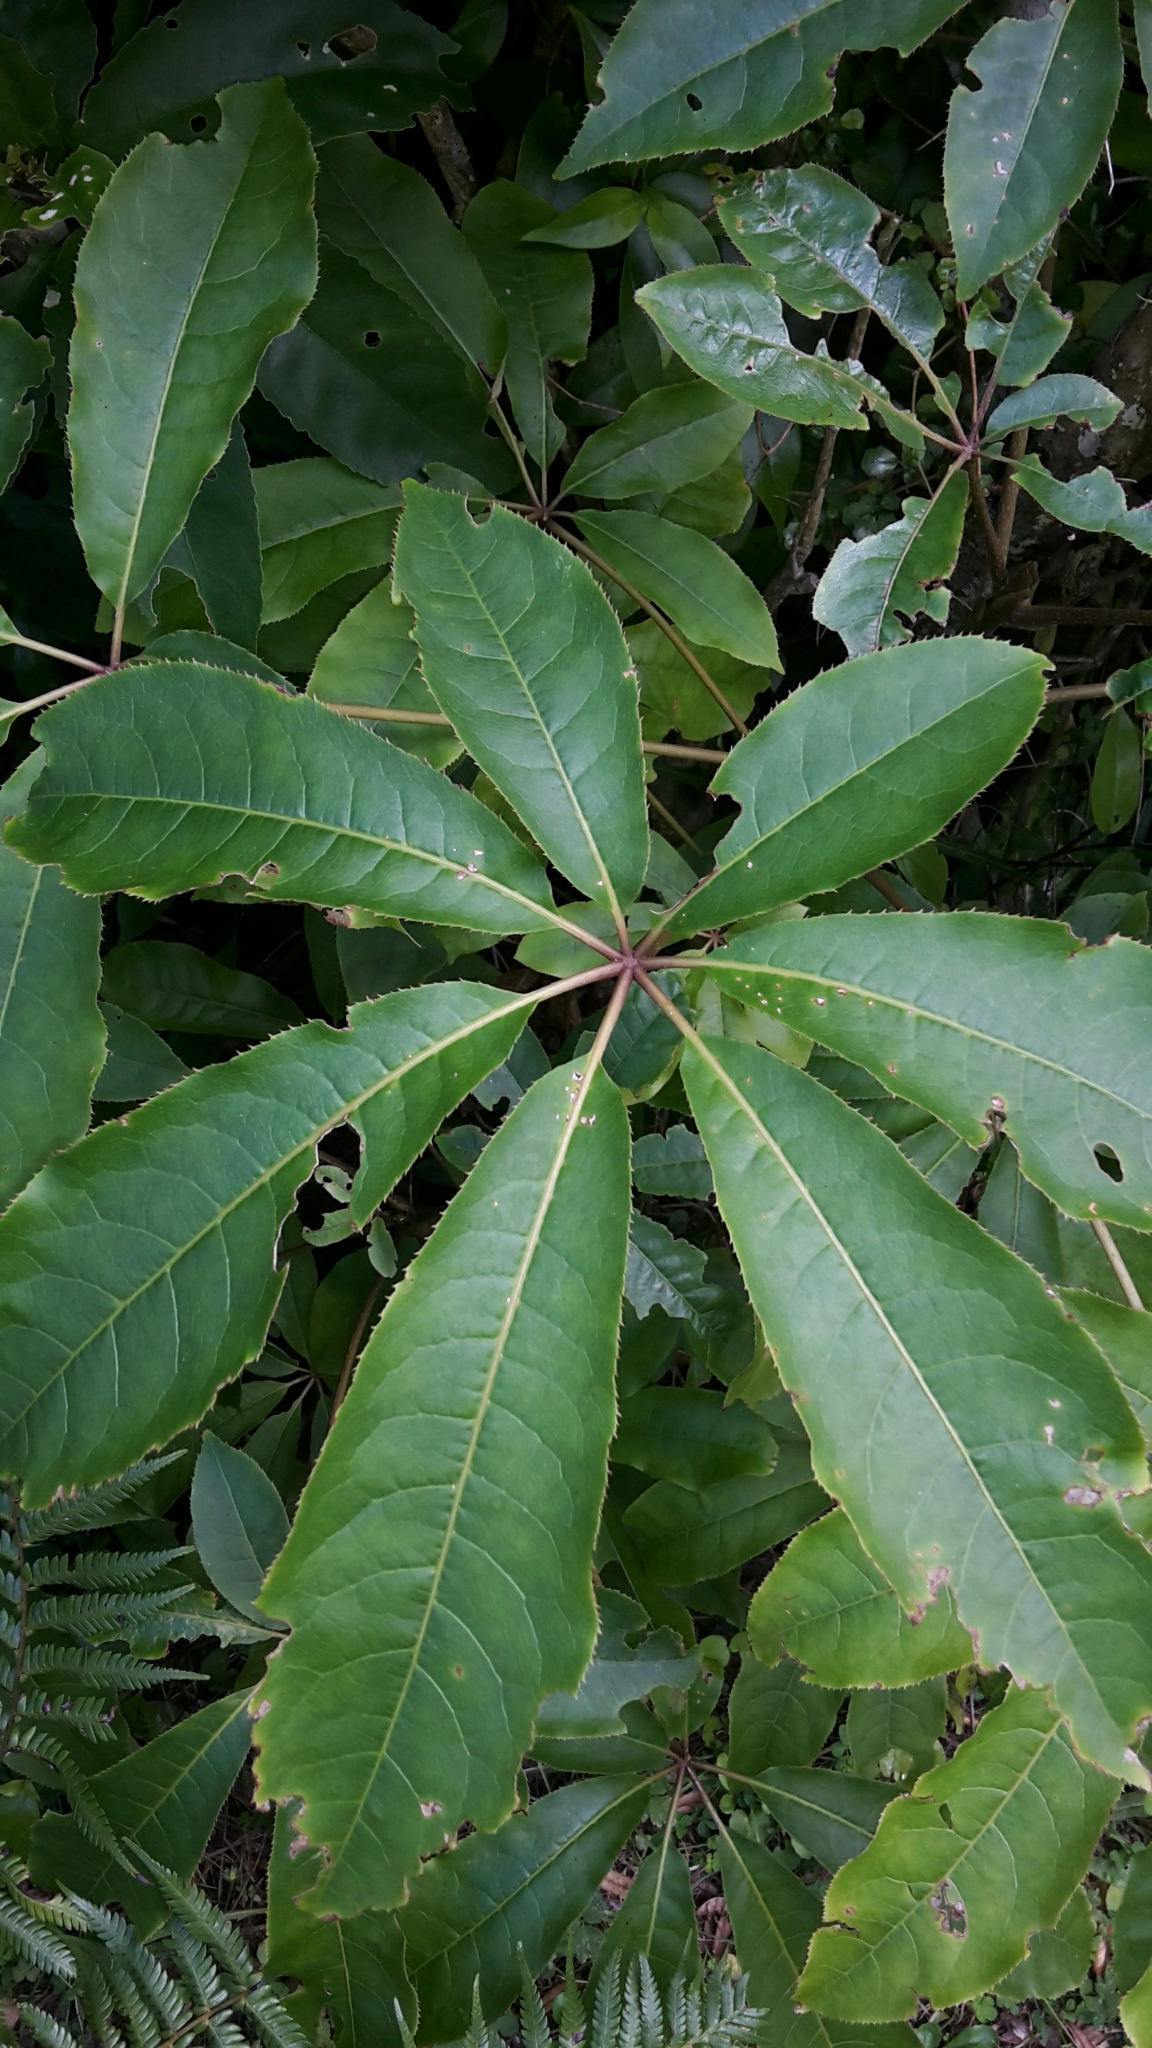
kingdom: Plantae
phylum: Tracheophyta
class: Magnoliopsida
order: Apiales
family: Araliaceae
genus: Schefflera
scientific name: Schefflera digitata
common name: Pate
